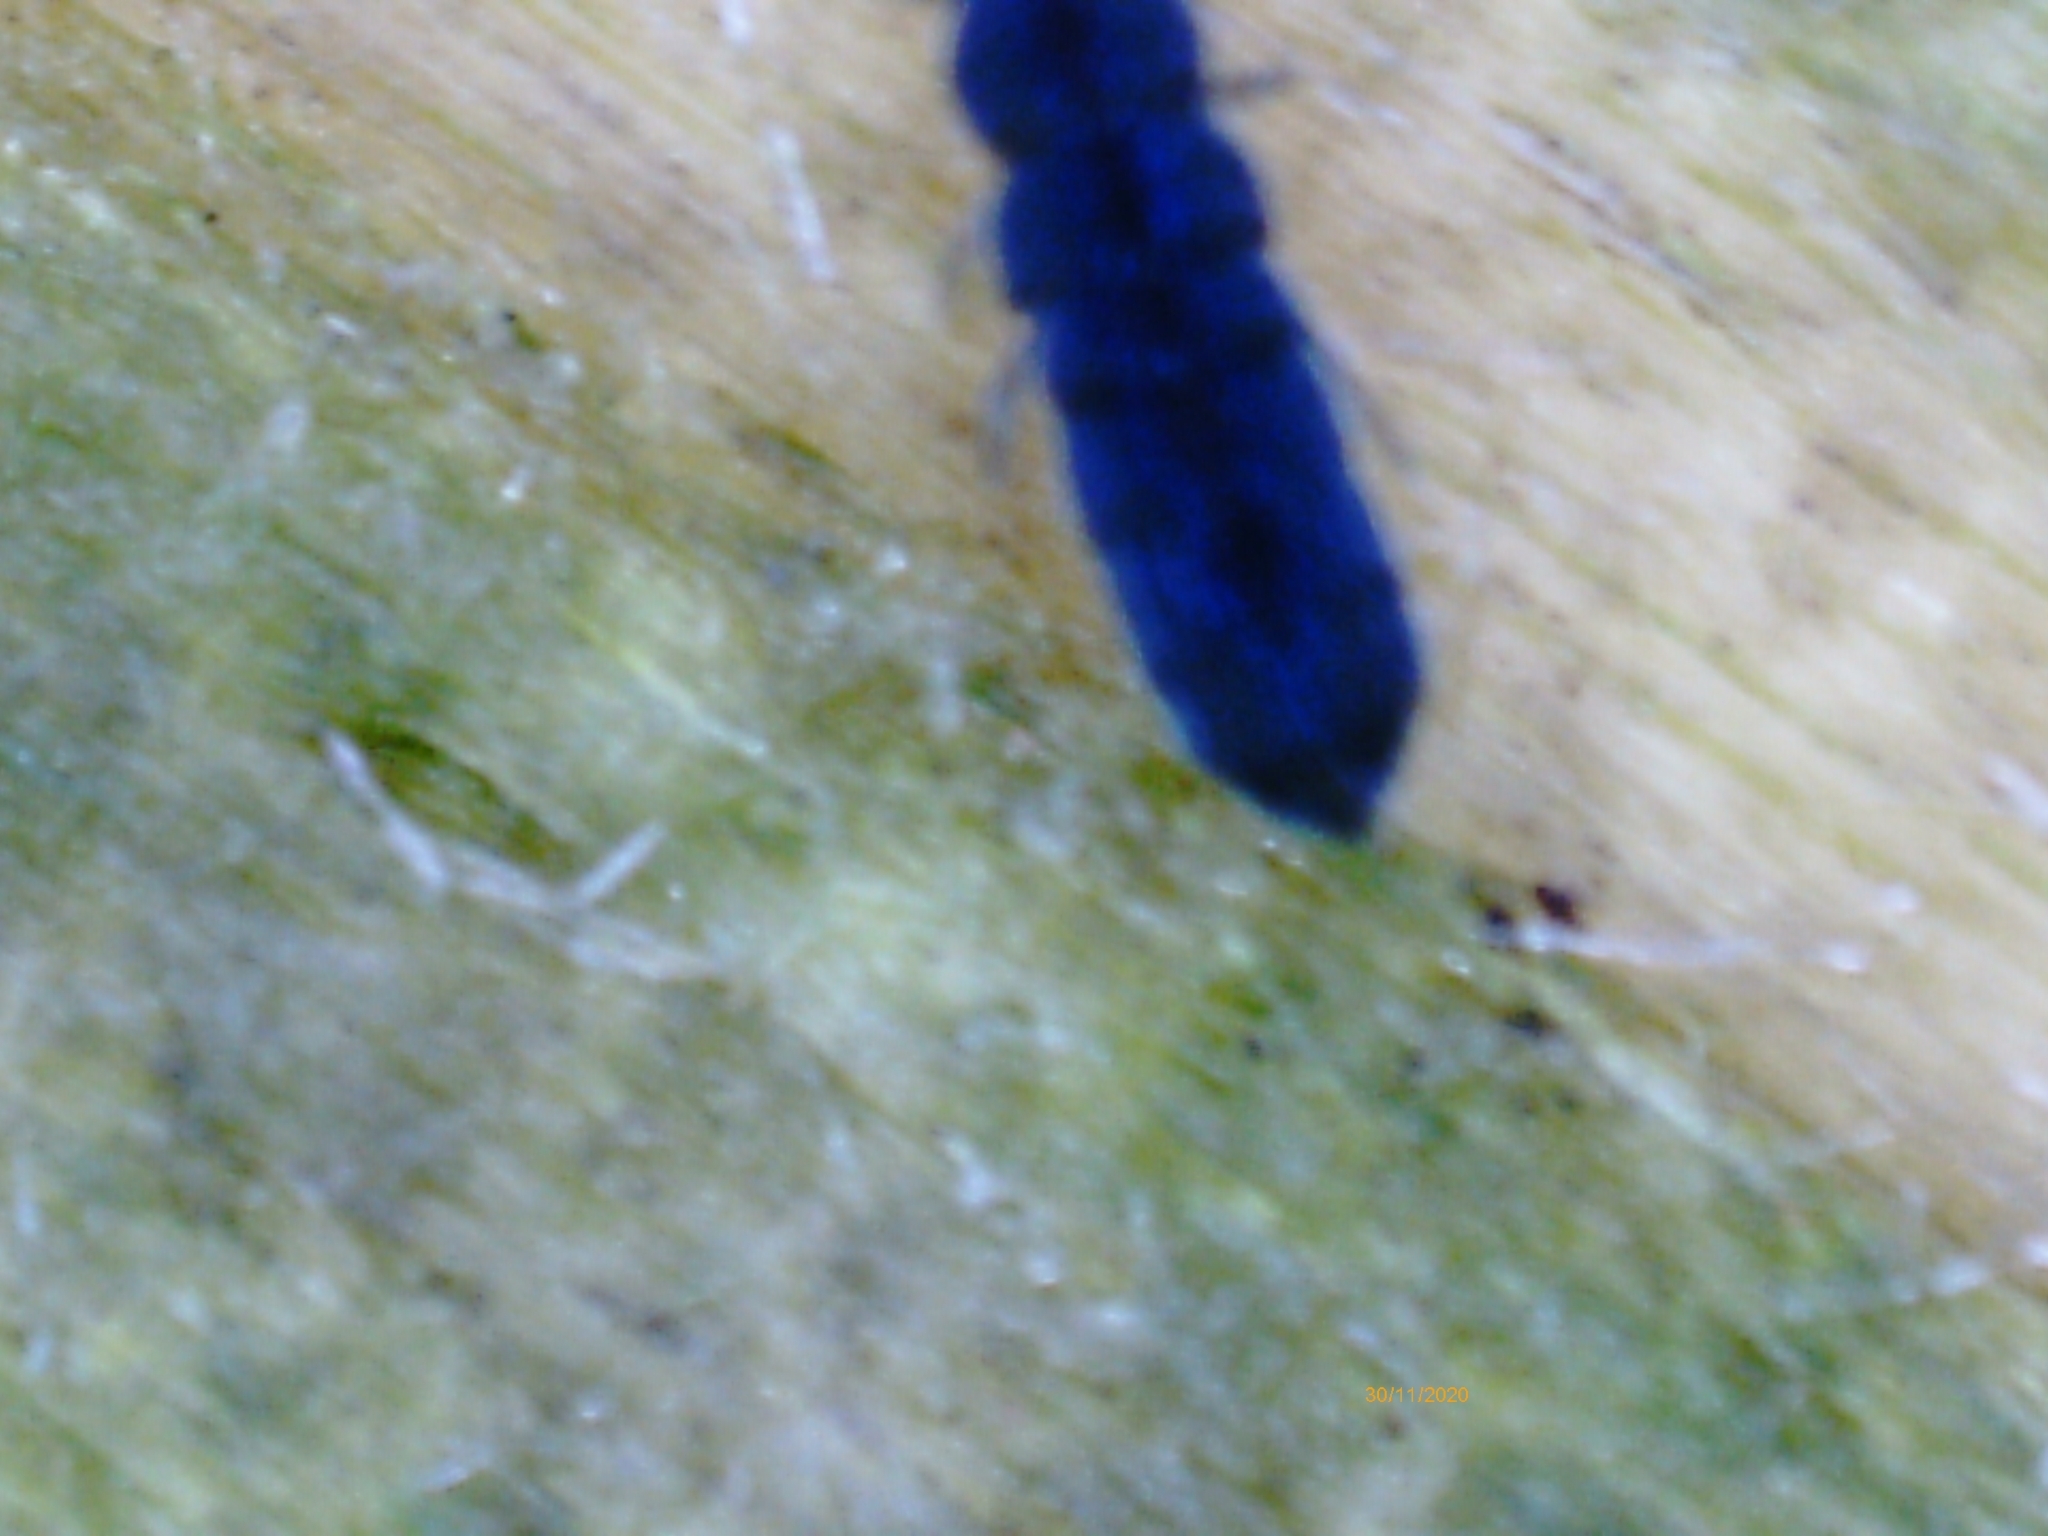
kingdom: Animalia
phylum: Arthropoda
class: Collembola
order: Entomobryomorpha
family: Isotomidae
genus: Vertagopus
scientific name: Vertagopus asiaticus
